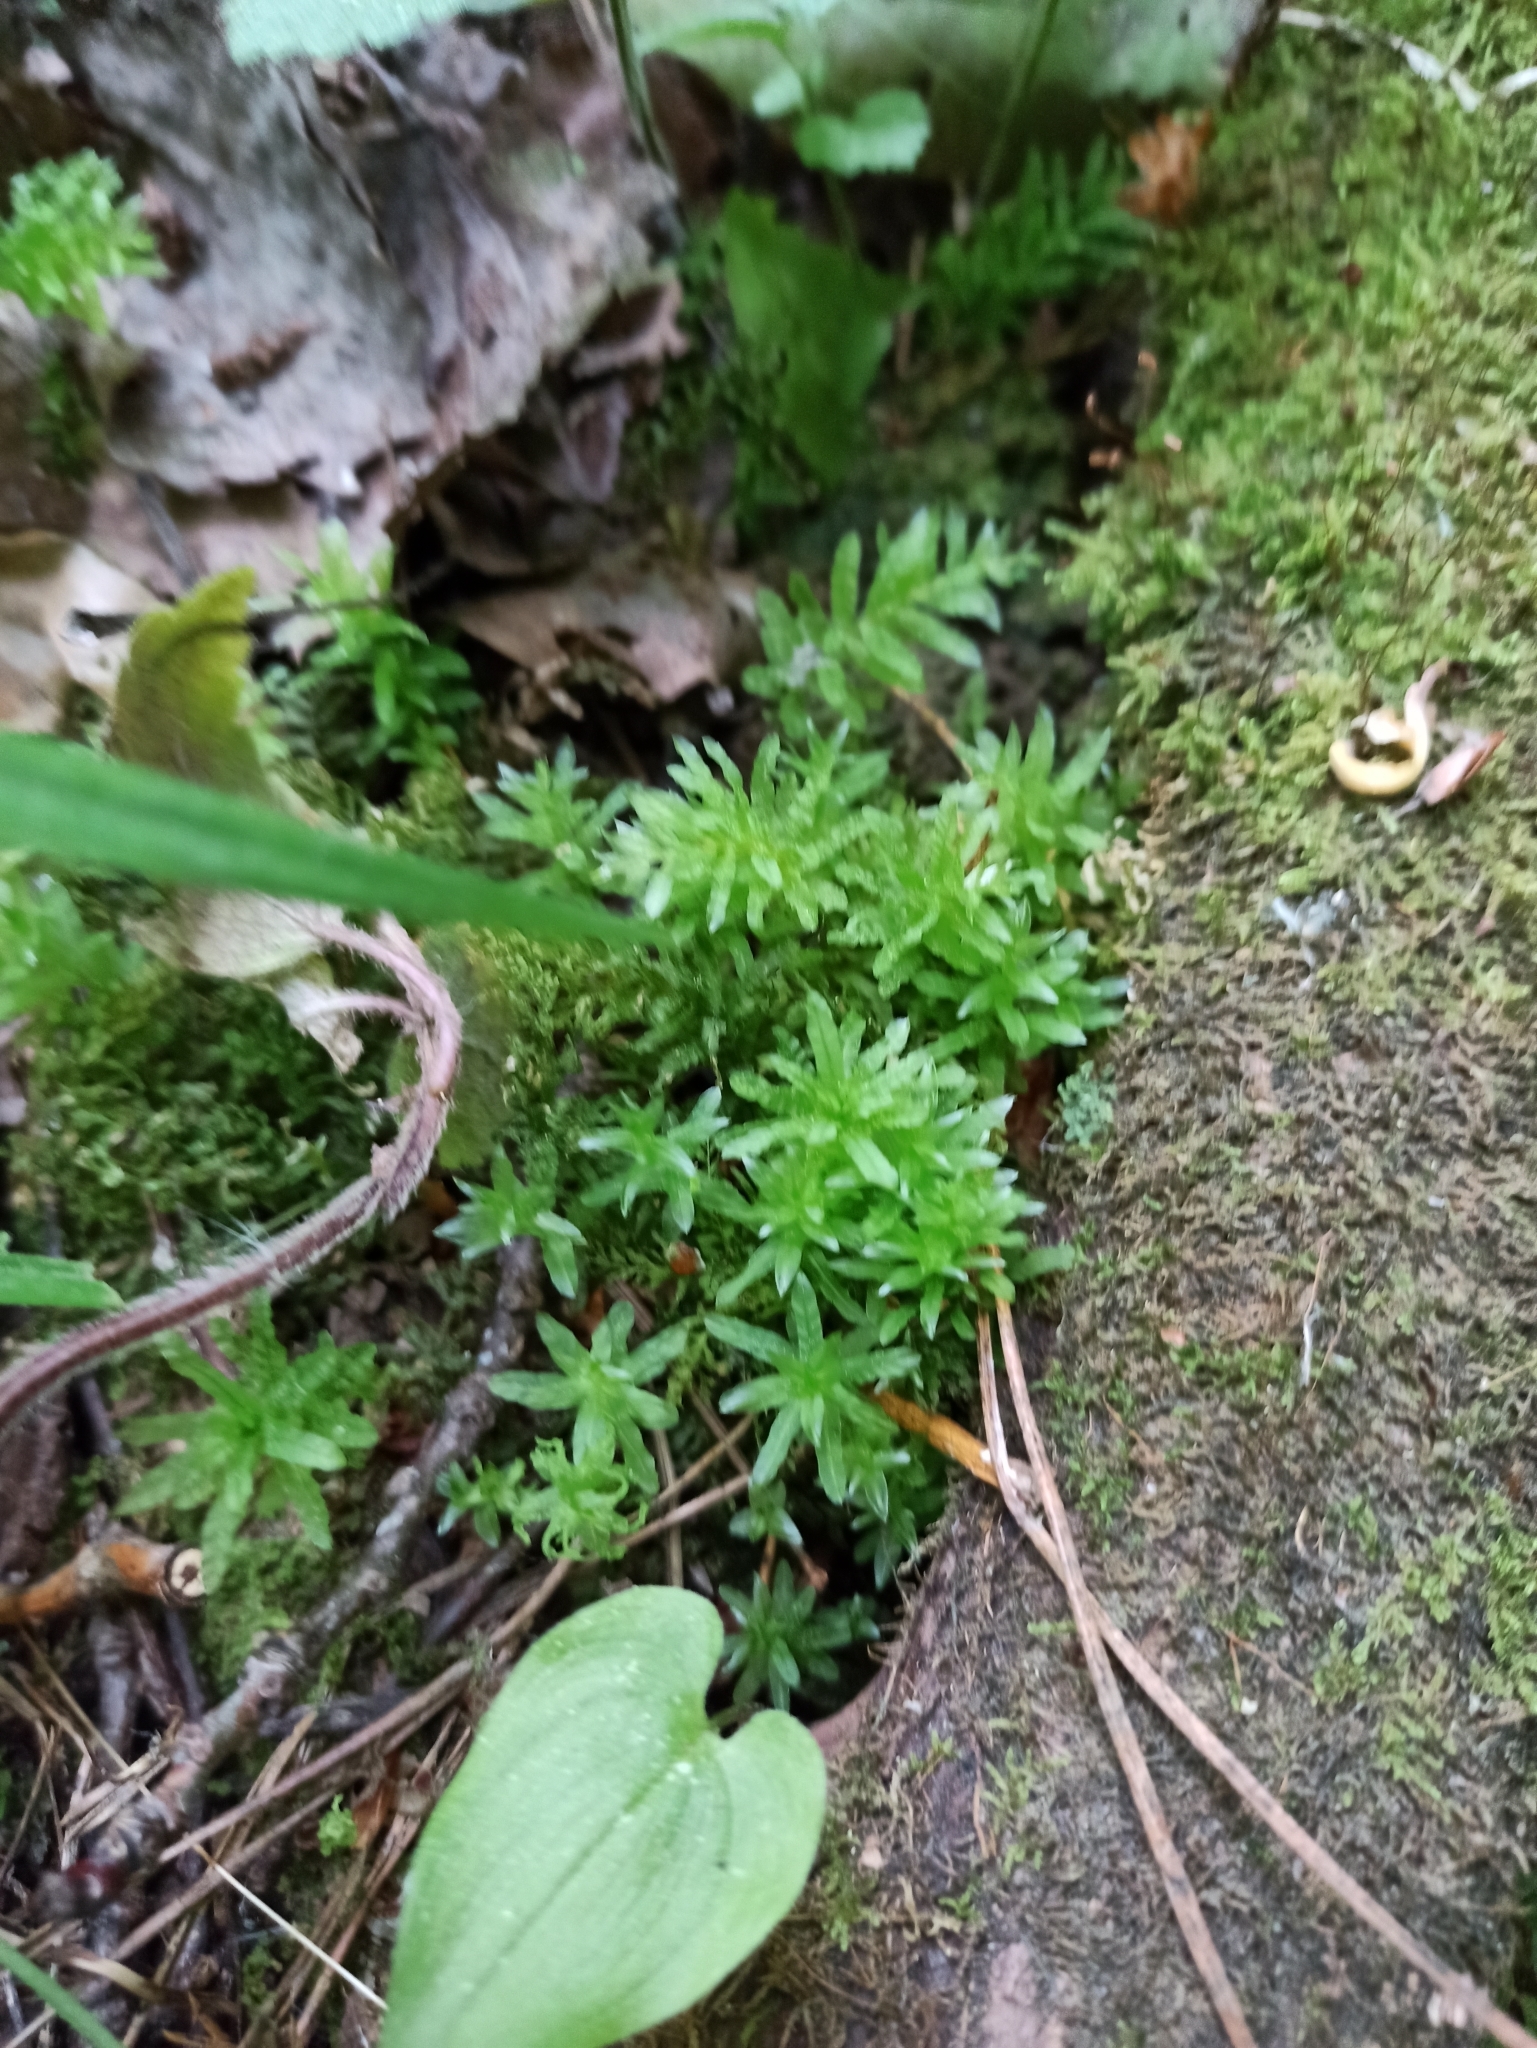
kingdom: Plantae
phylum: Bryophyta
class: Bryopsida
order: Bryales
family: Mniaceae
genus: Plagiomnium
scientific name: Plagiomnium undulatum
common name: Hart's-tongue thyme-moss
